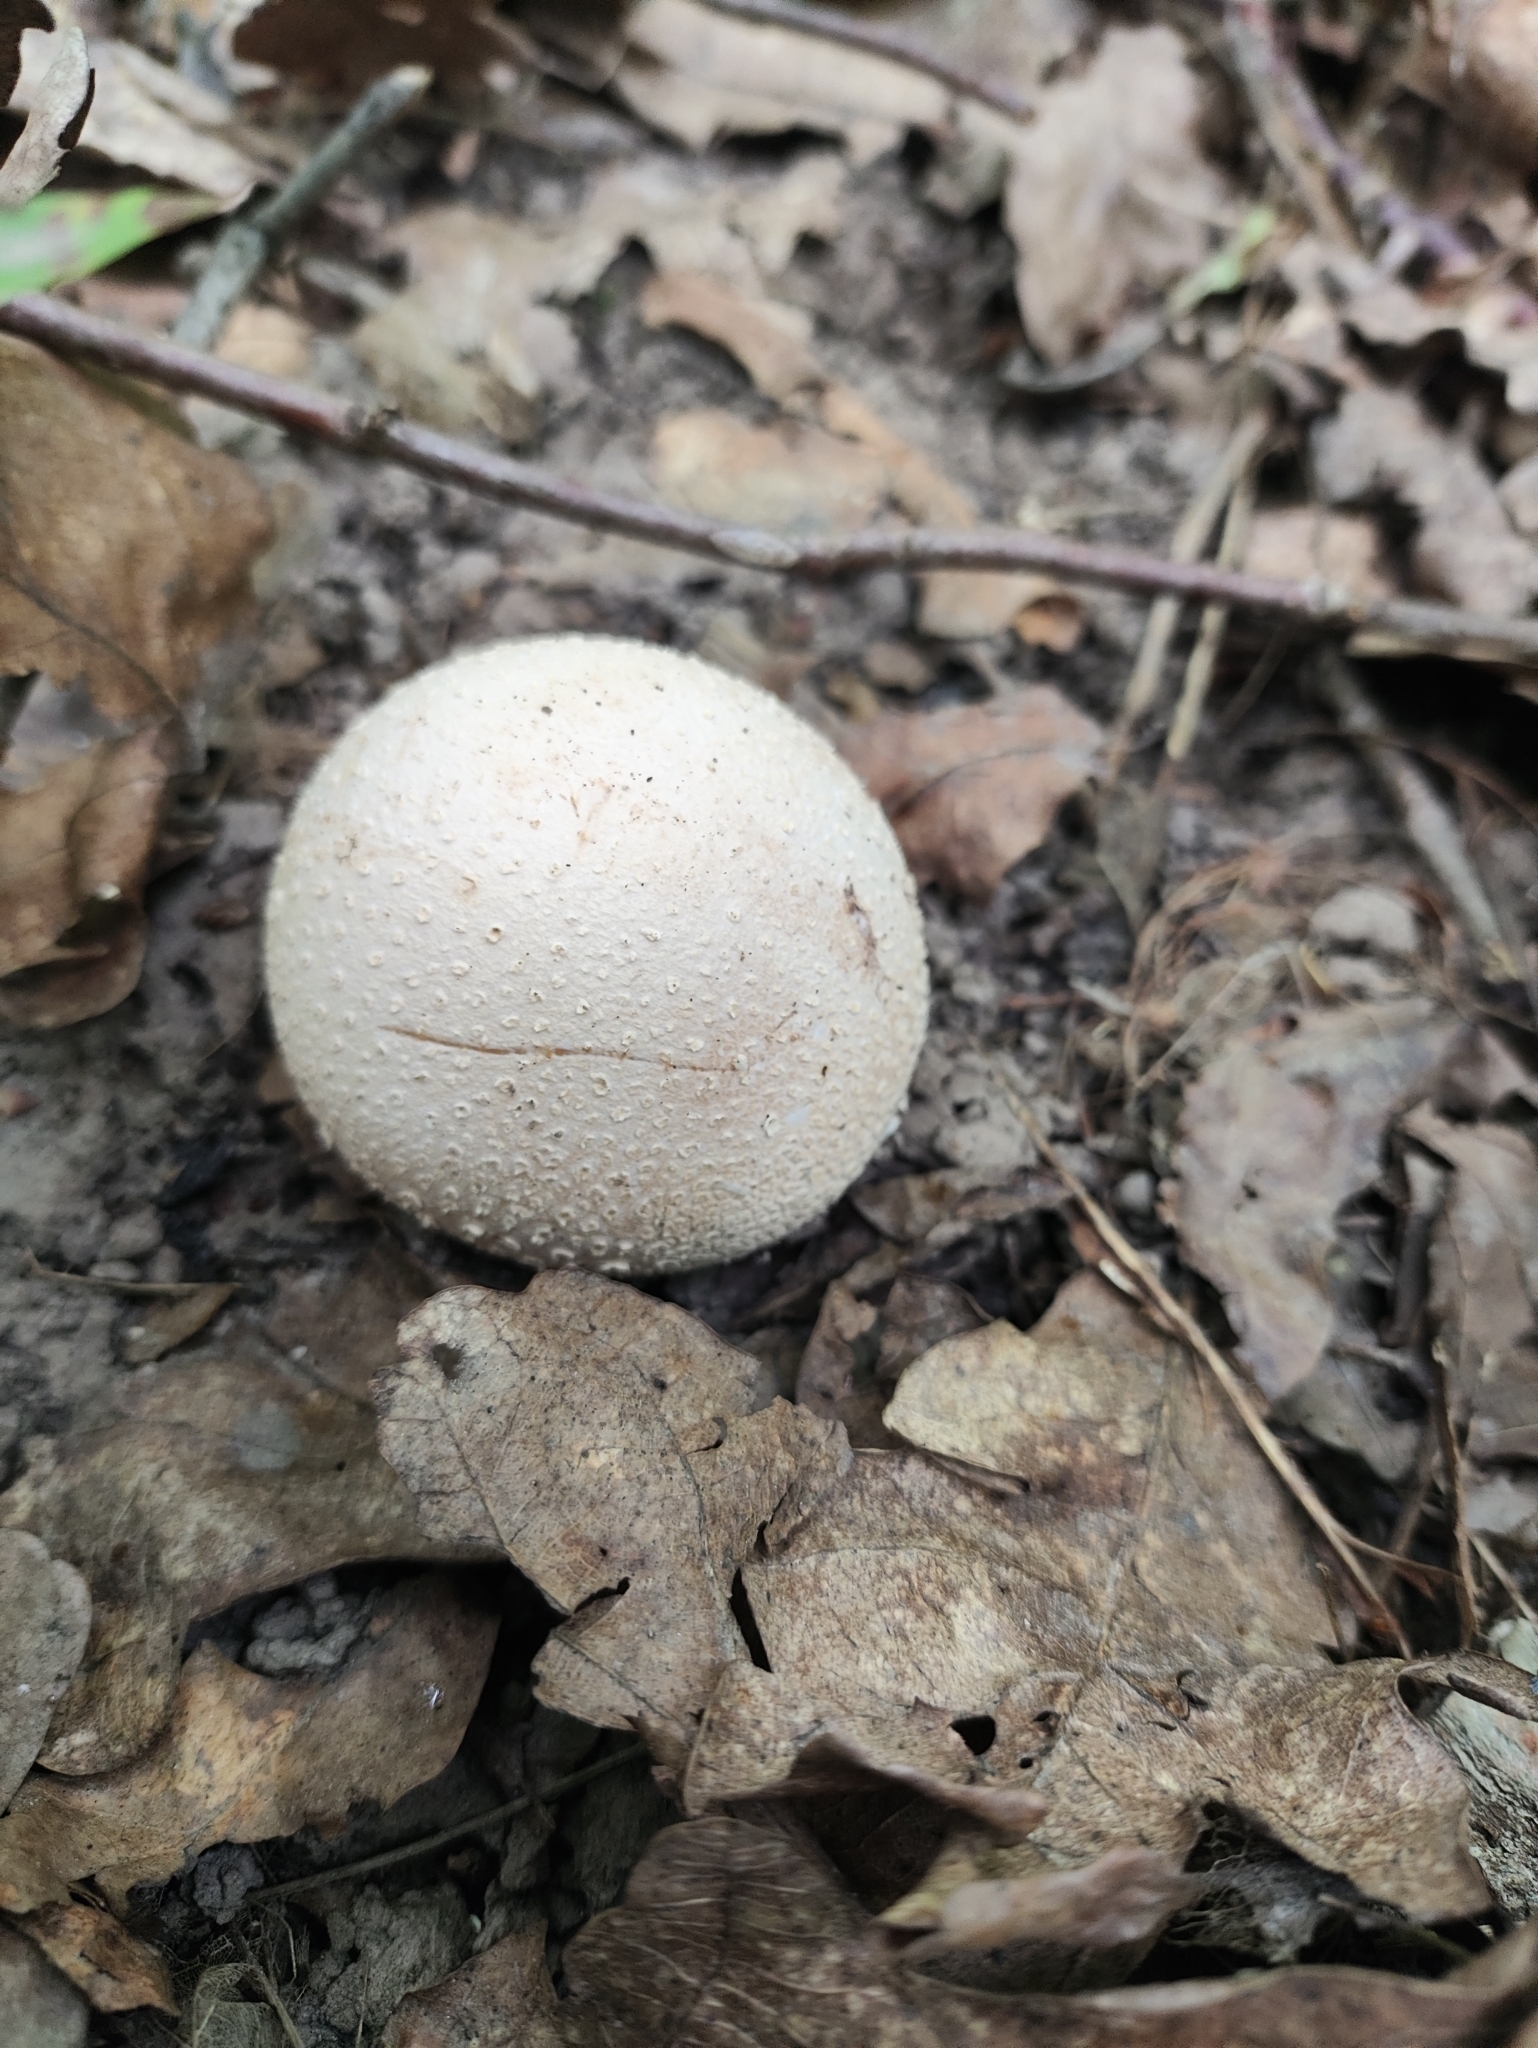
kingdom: Fungi
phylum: Basidiomycota
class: Agaricomycetes
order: Phallales
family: Phallaceae
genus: Phallus
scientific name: Phallus impudicus
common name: Common stinkhorn
